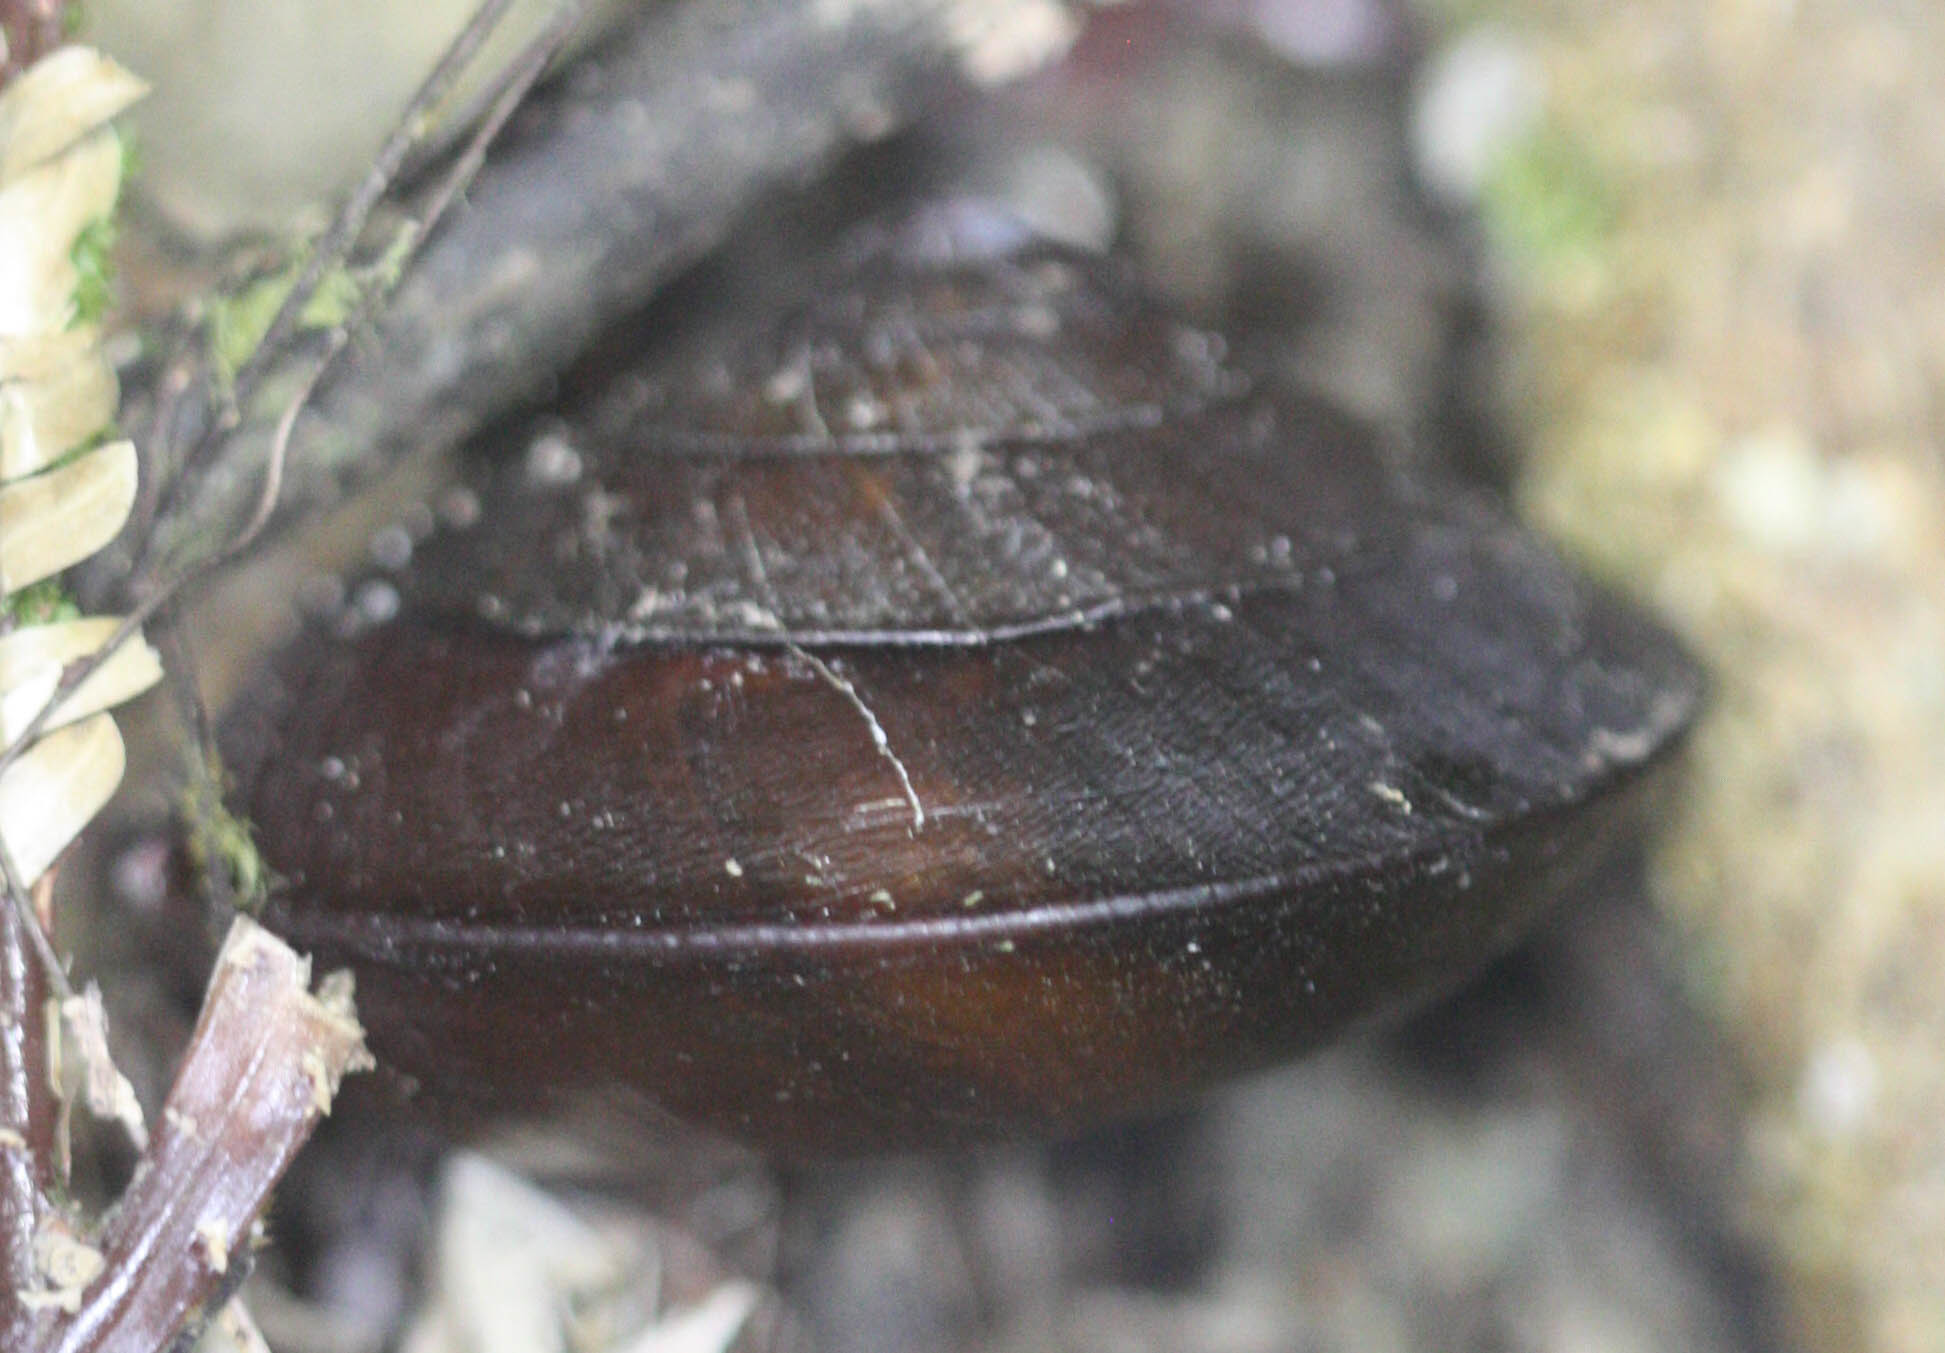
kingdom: Animalia
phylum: Mollusca
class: Gastropoda
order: Stylommatophora
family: Ariophantidae
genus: Hemiplecta
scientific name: Hemiplecta cymatium
